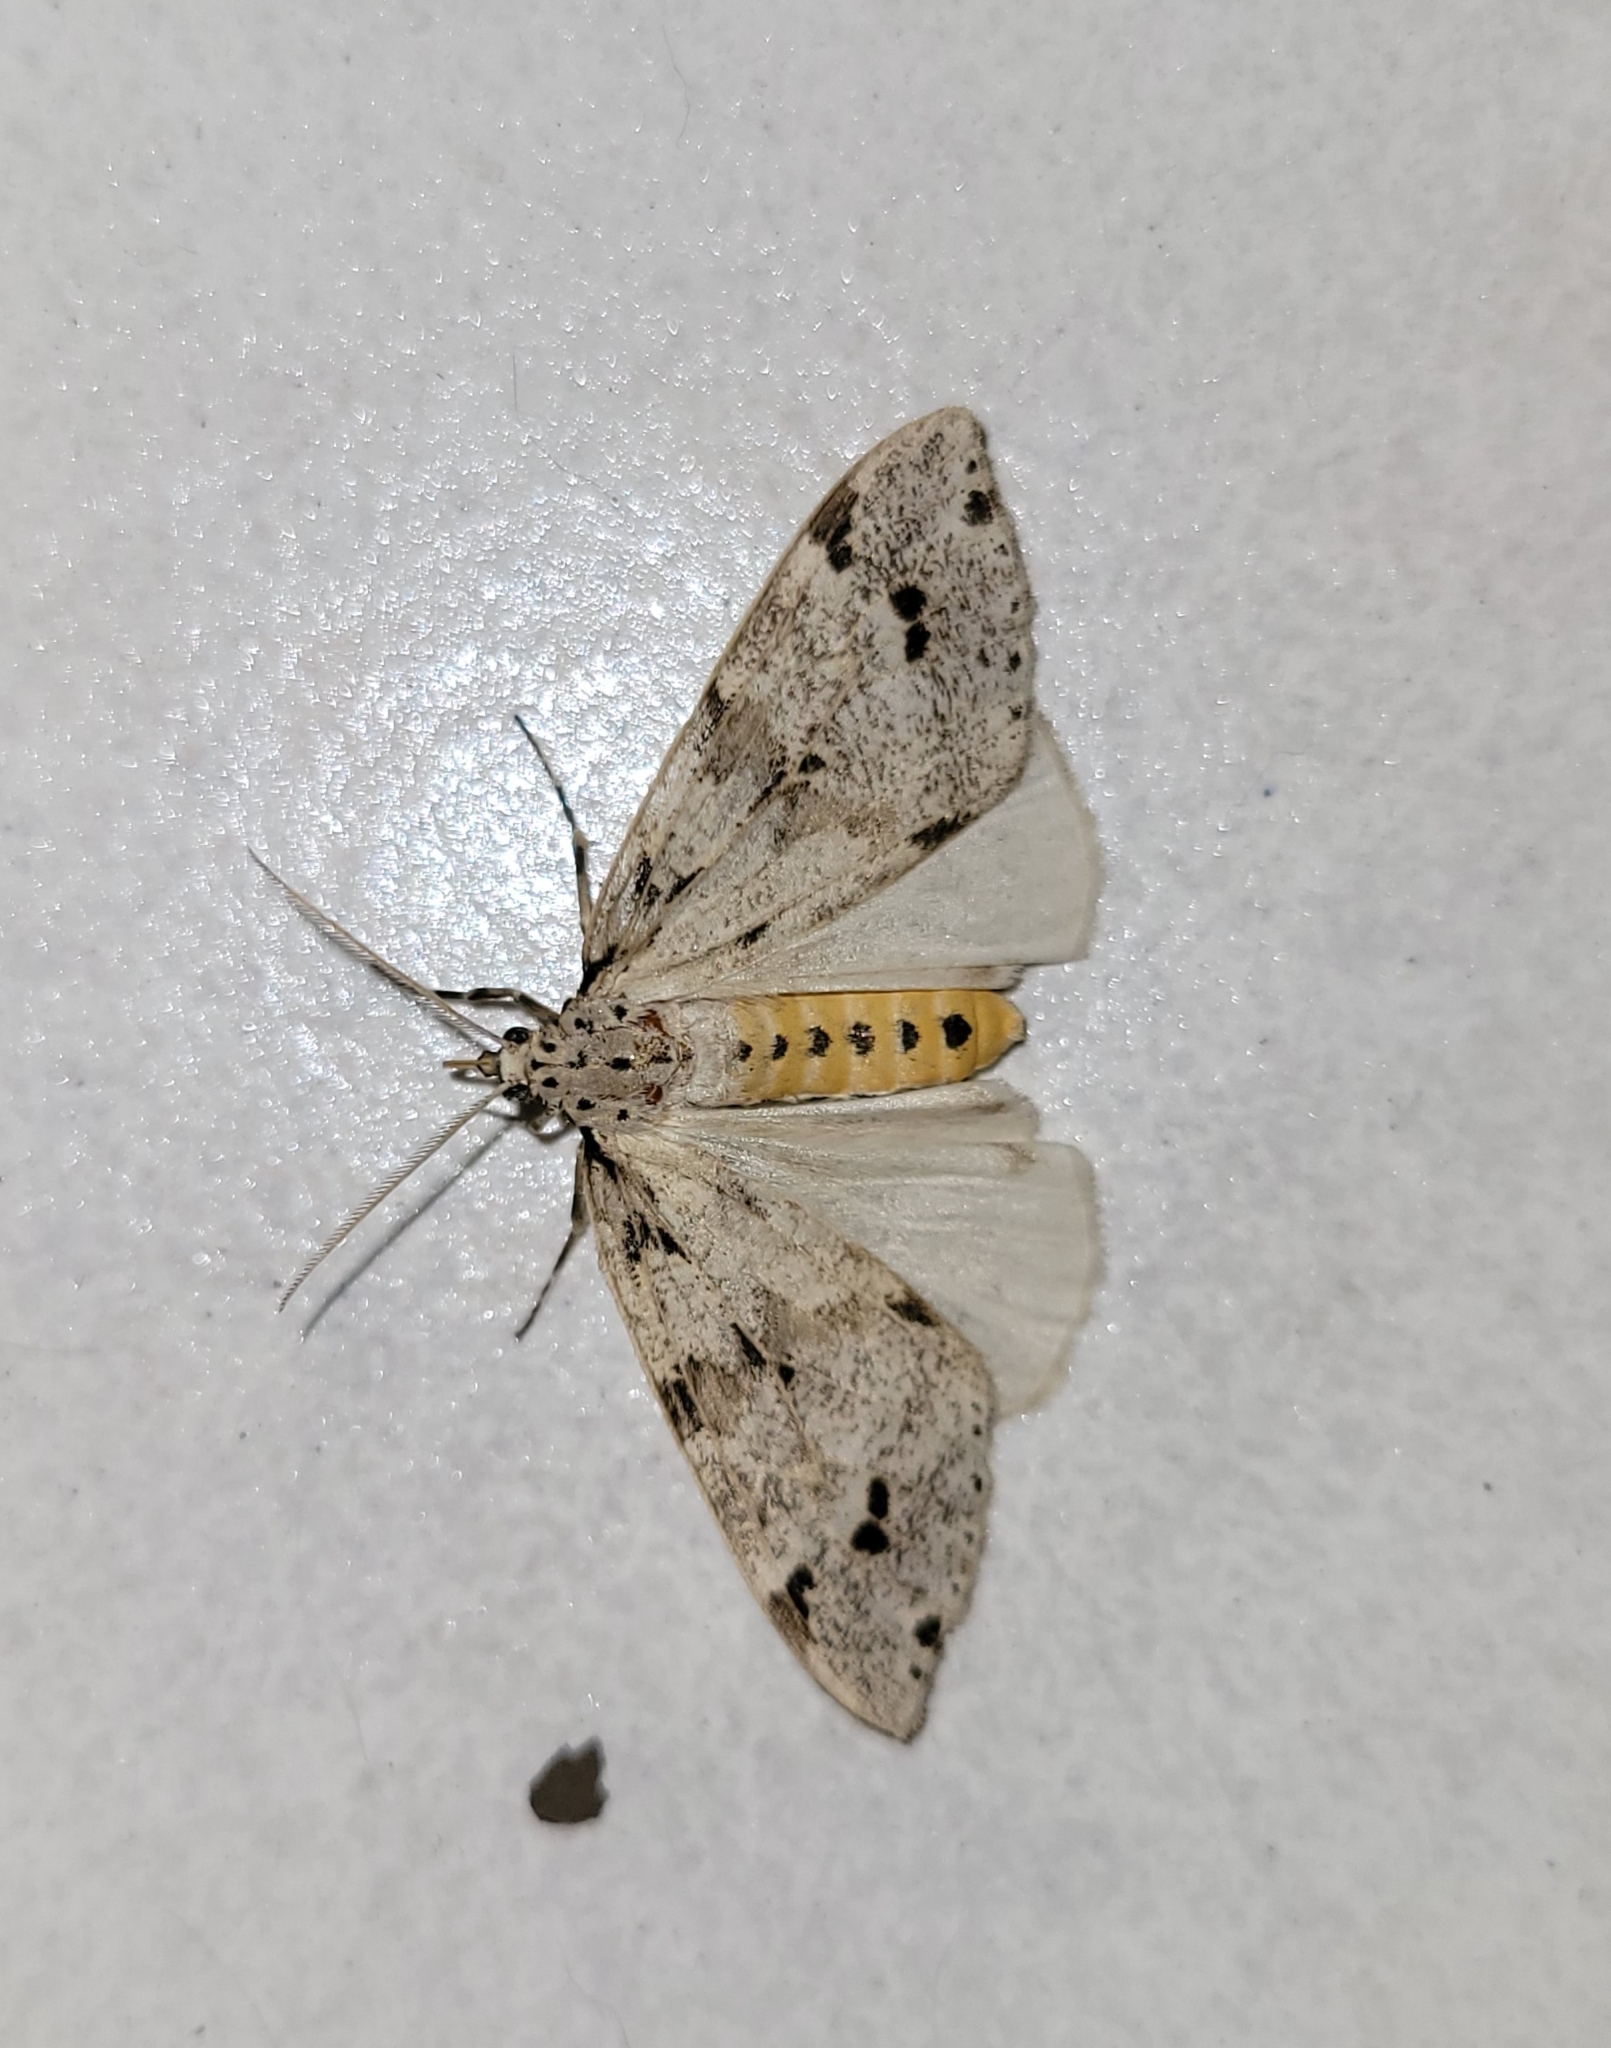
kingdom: Animalia
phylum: Arthropoda
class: Insecta
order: Lepidoptera
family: Erebidae
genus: Galtara
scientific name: Galtara pulverata
